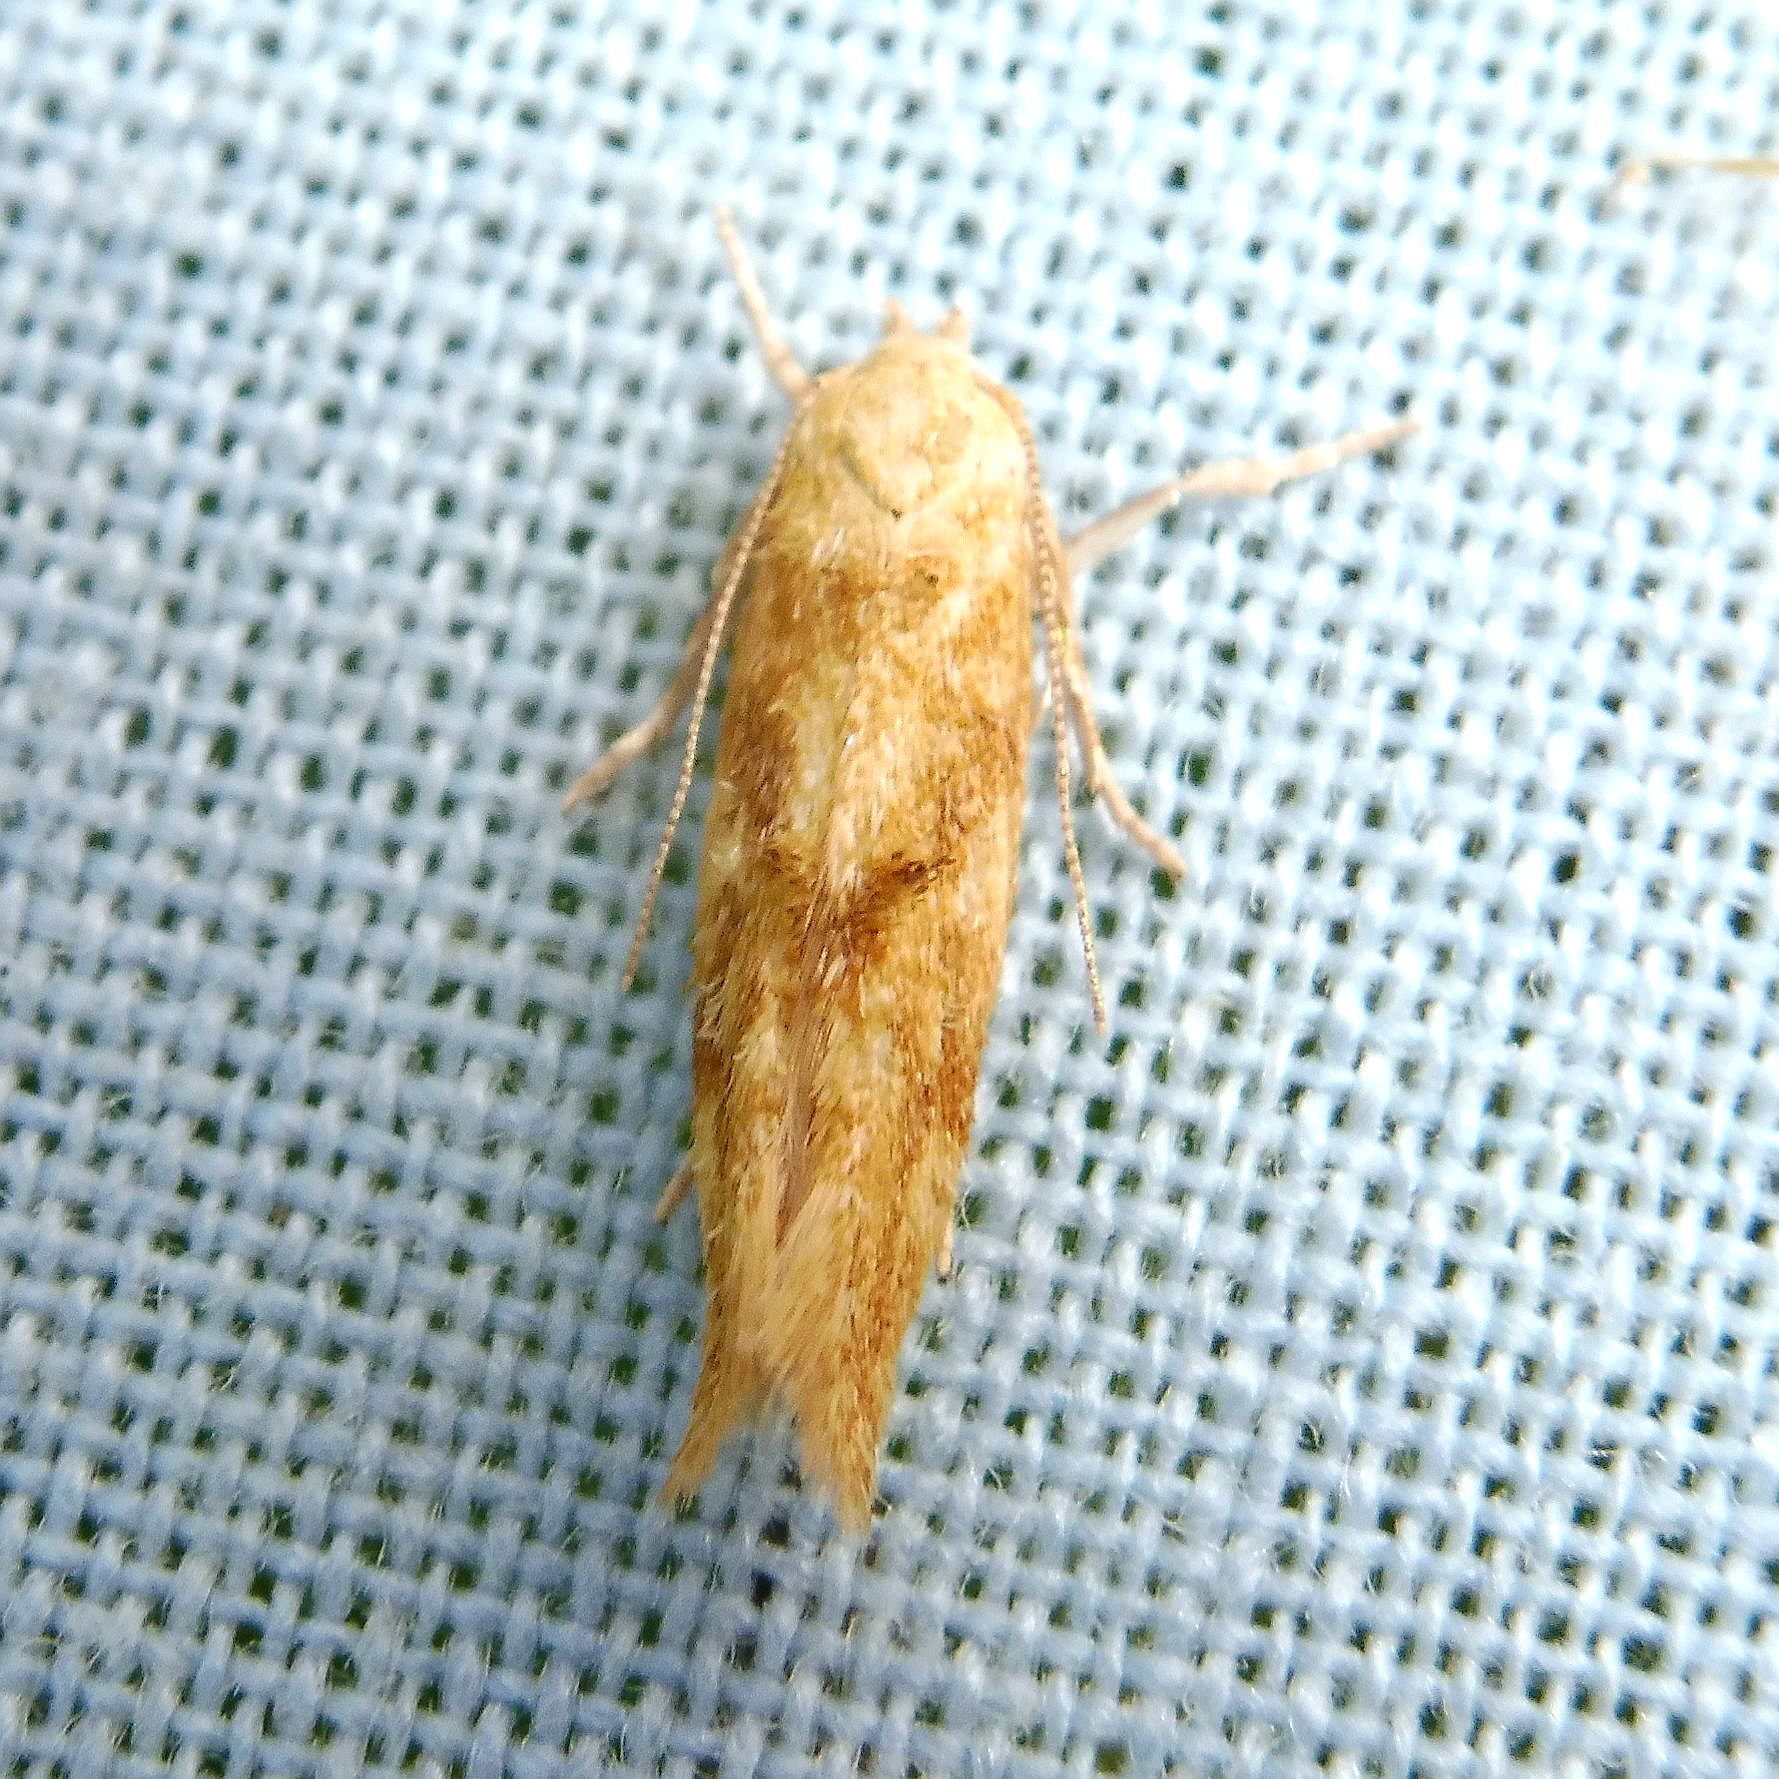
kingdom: Animalia
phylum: Arthropoda
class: Insecta
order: Lepidoptera
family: Momphidae
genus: Mompha
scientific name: Mompha ochraceella
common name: Buff cosmet
